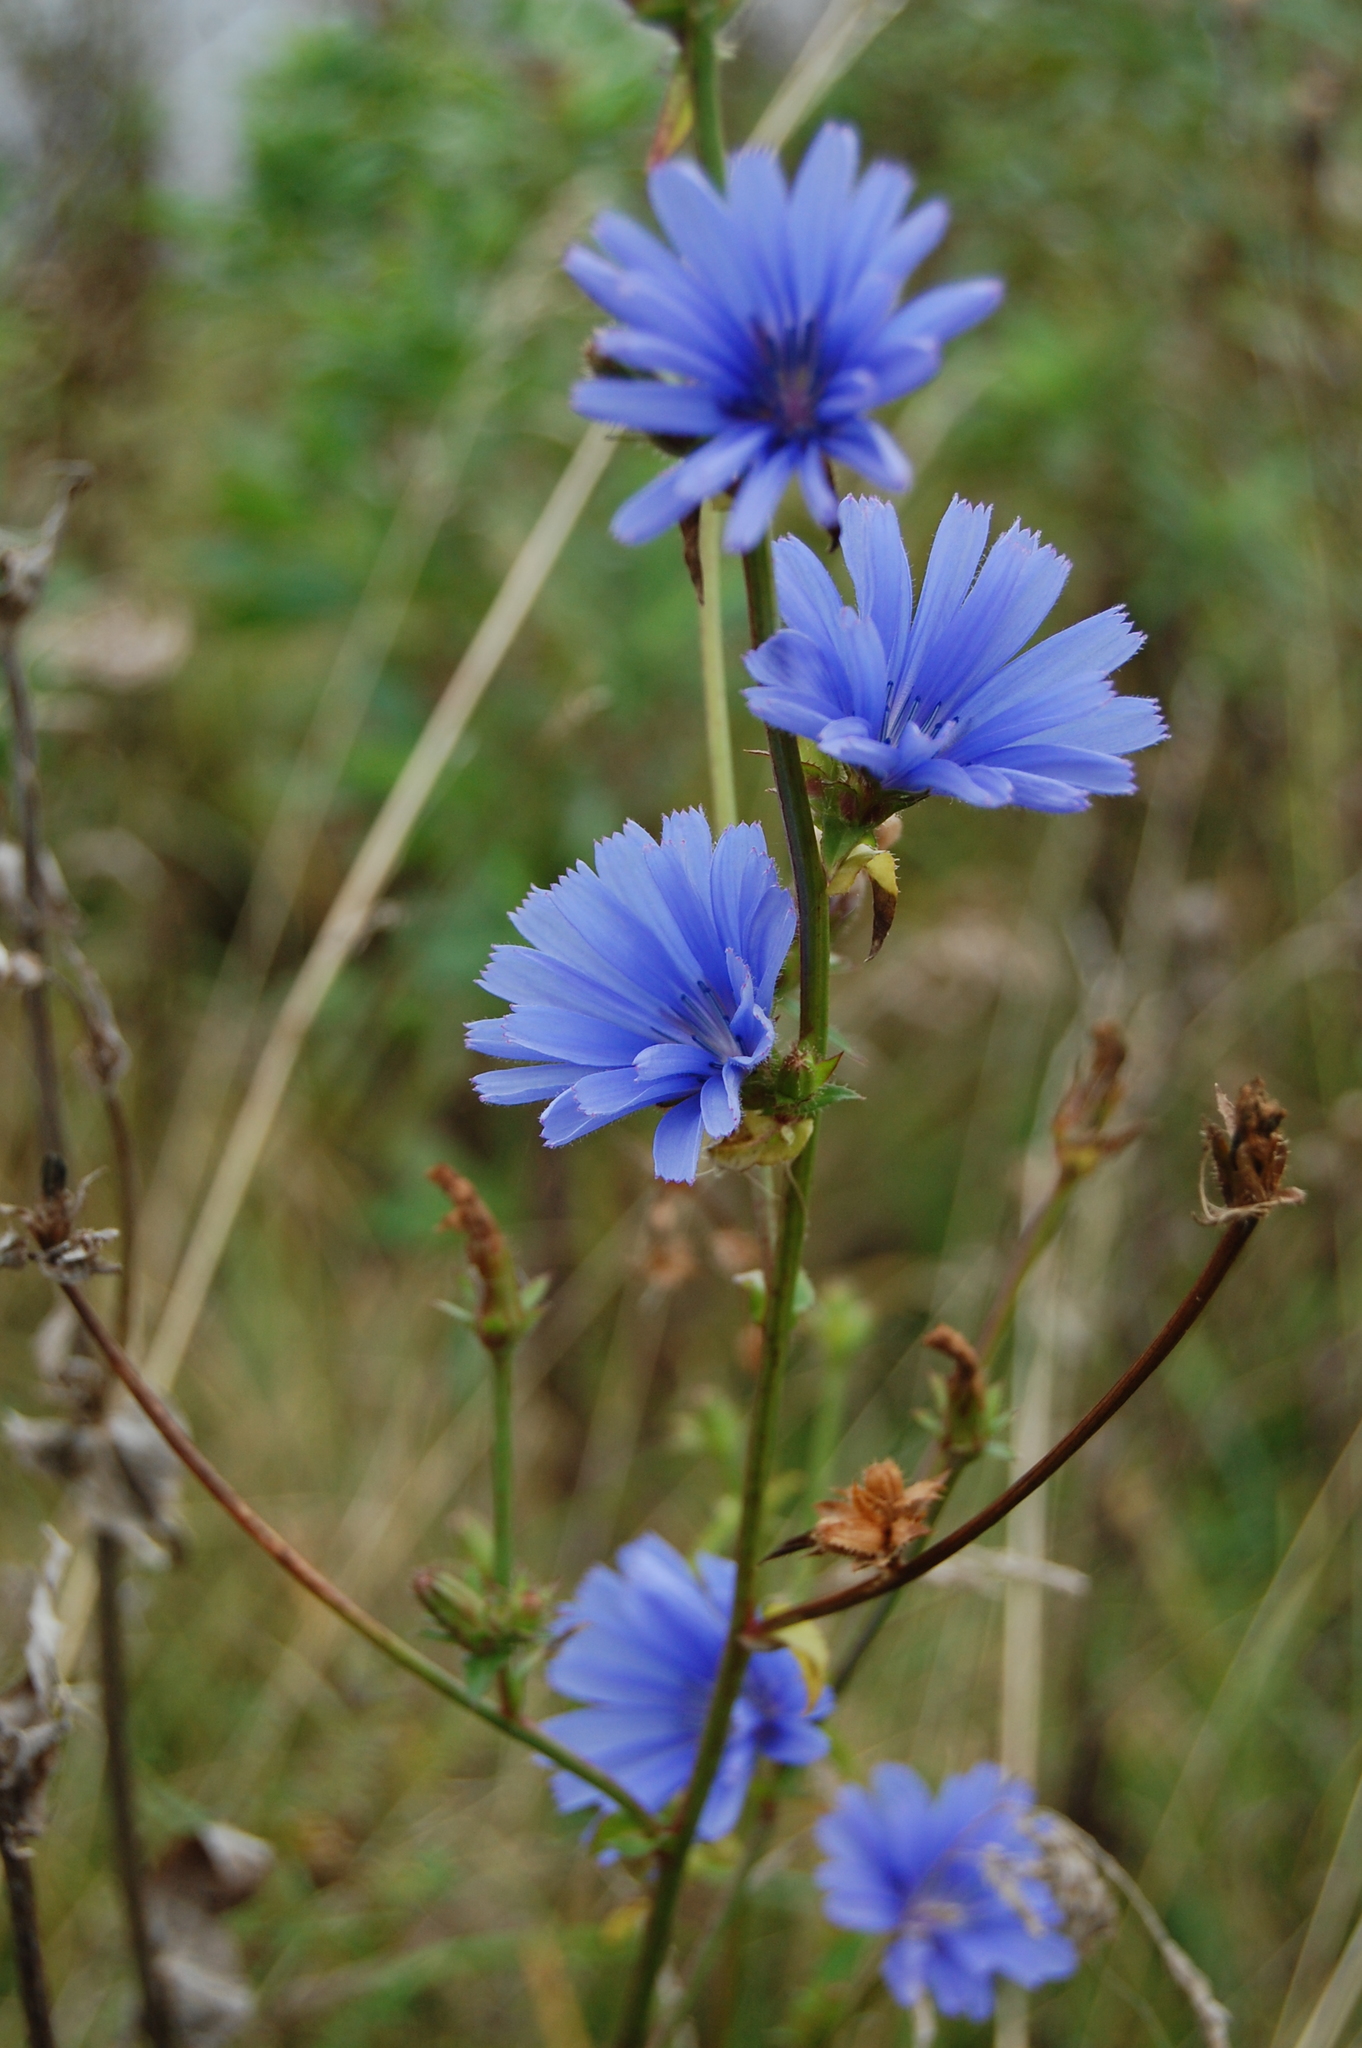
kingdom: Plantae
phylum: Tracheophyta
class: Magnoliopsida
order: Asterales
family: Asteraceae
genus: Cichorium
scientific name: Cichorium intybus
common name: Chicory
